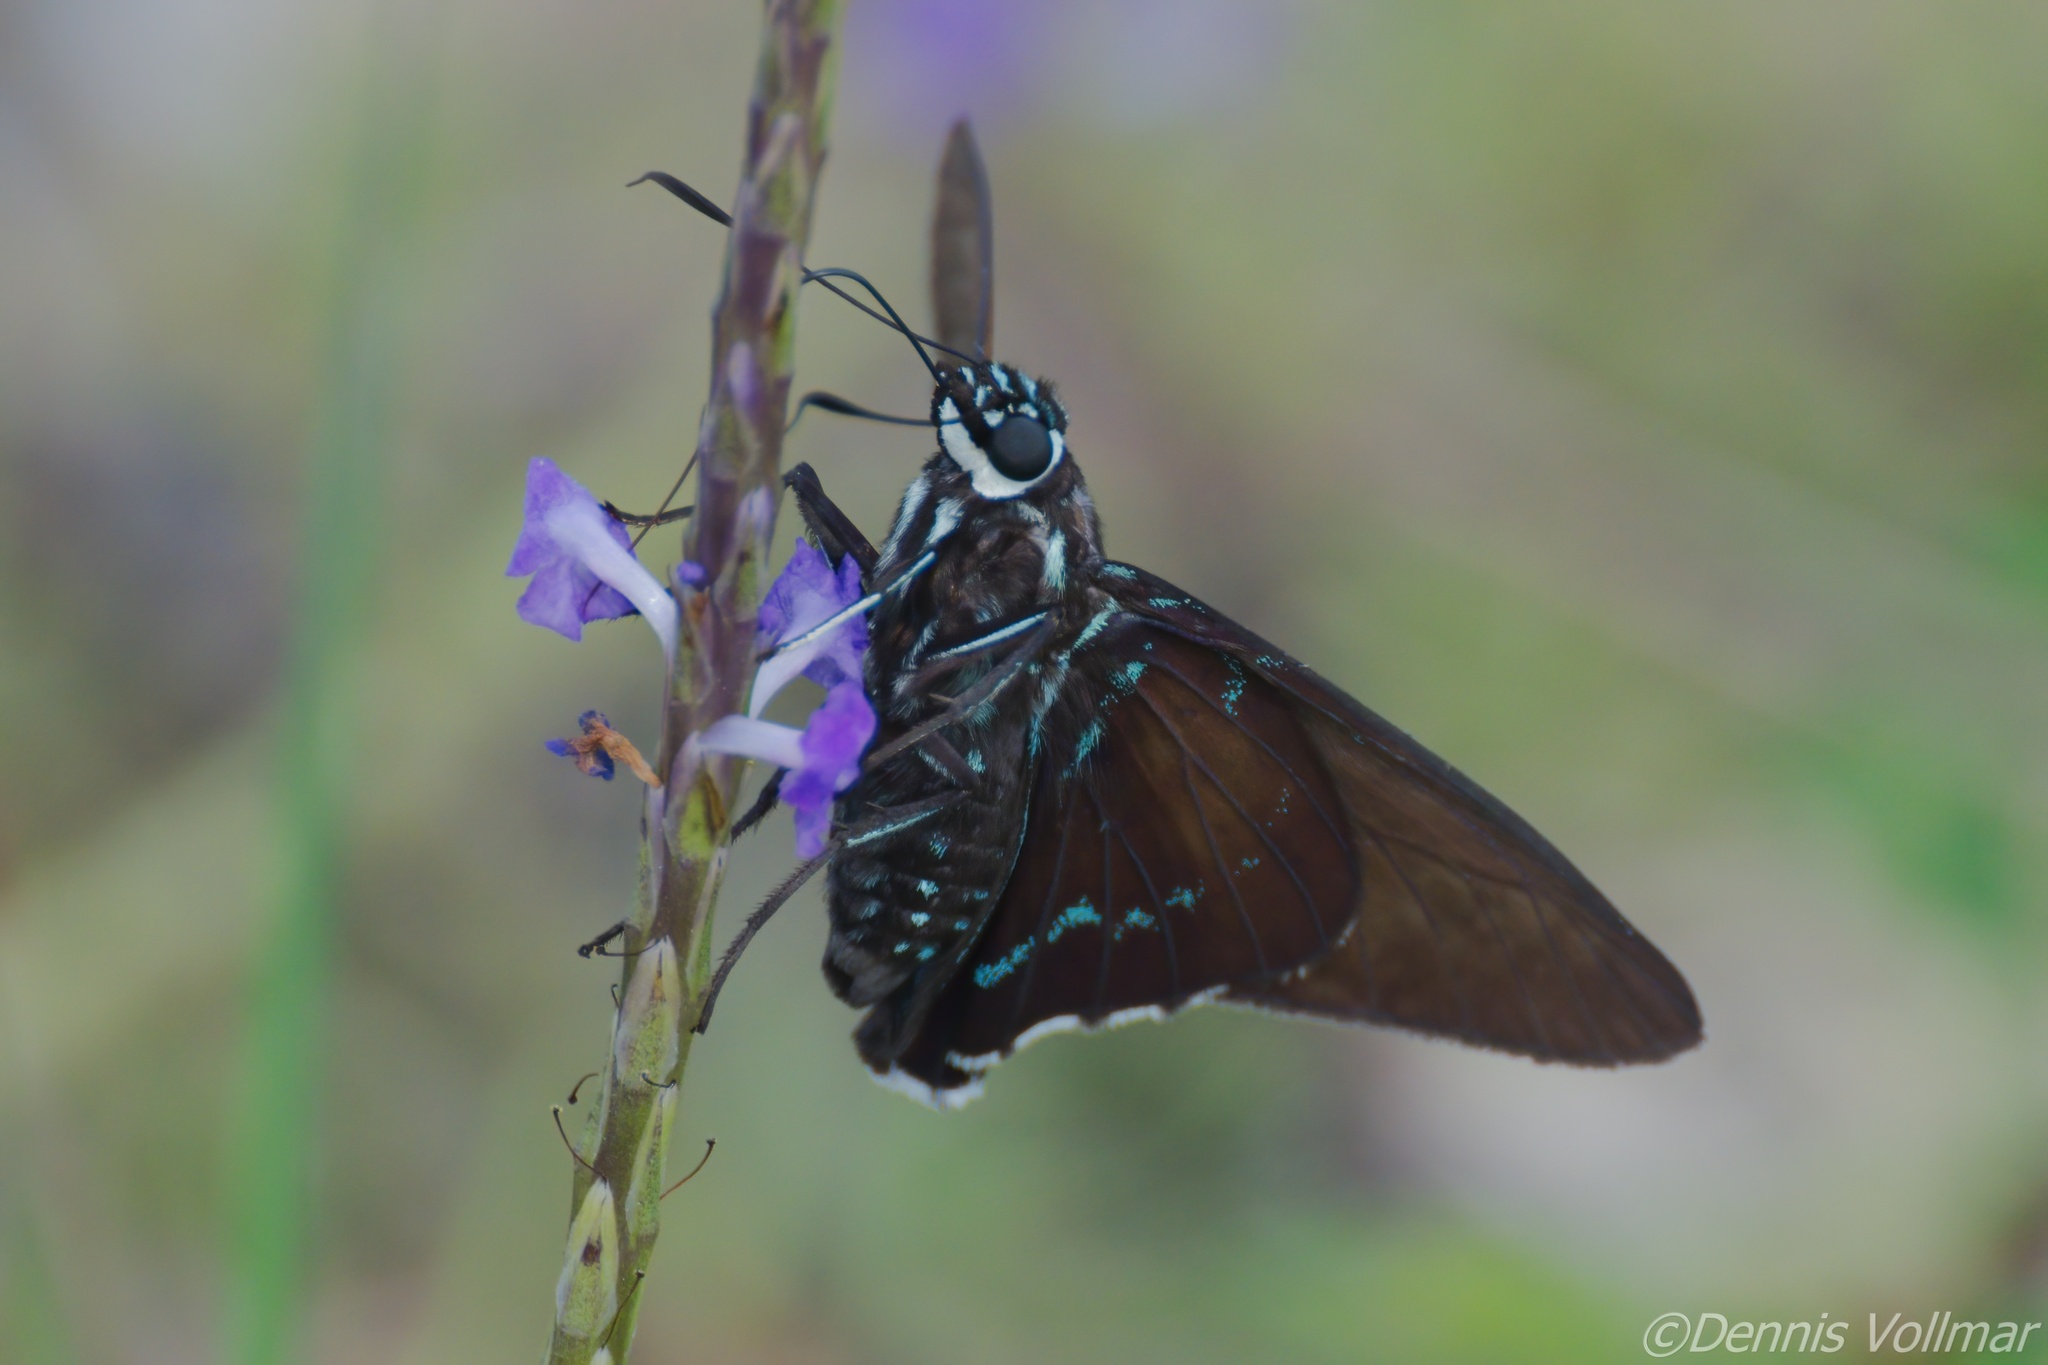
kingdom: Animalia
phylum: Arthropoda
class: Insecta
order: Lepidoptera
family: Hesperiidae
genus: Phocides
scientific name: Phocides pigmalion
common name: Mangrove skipper
